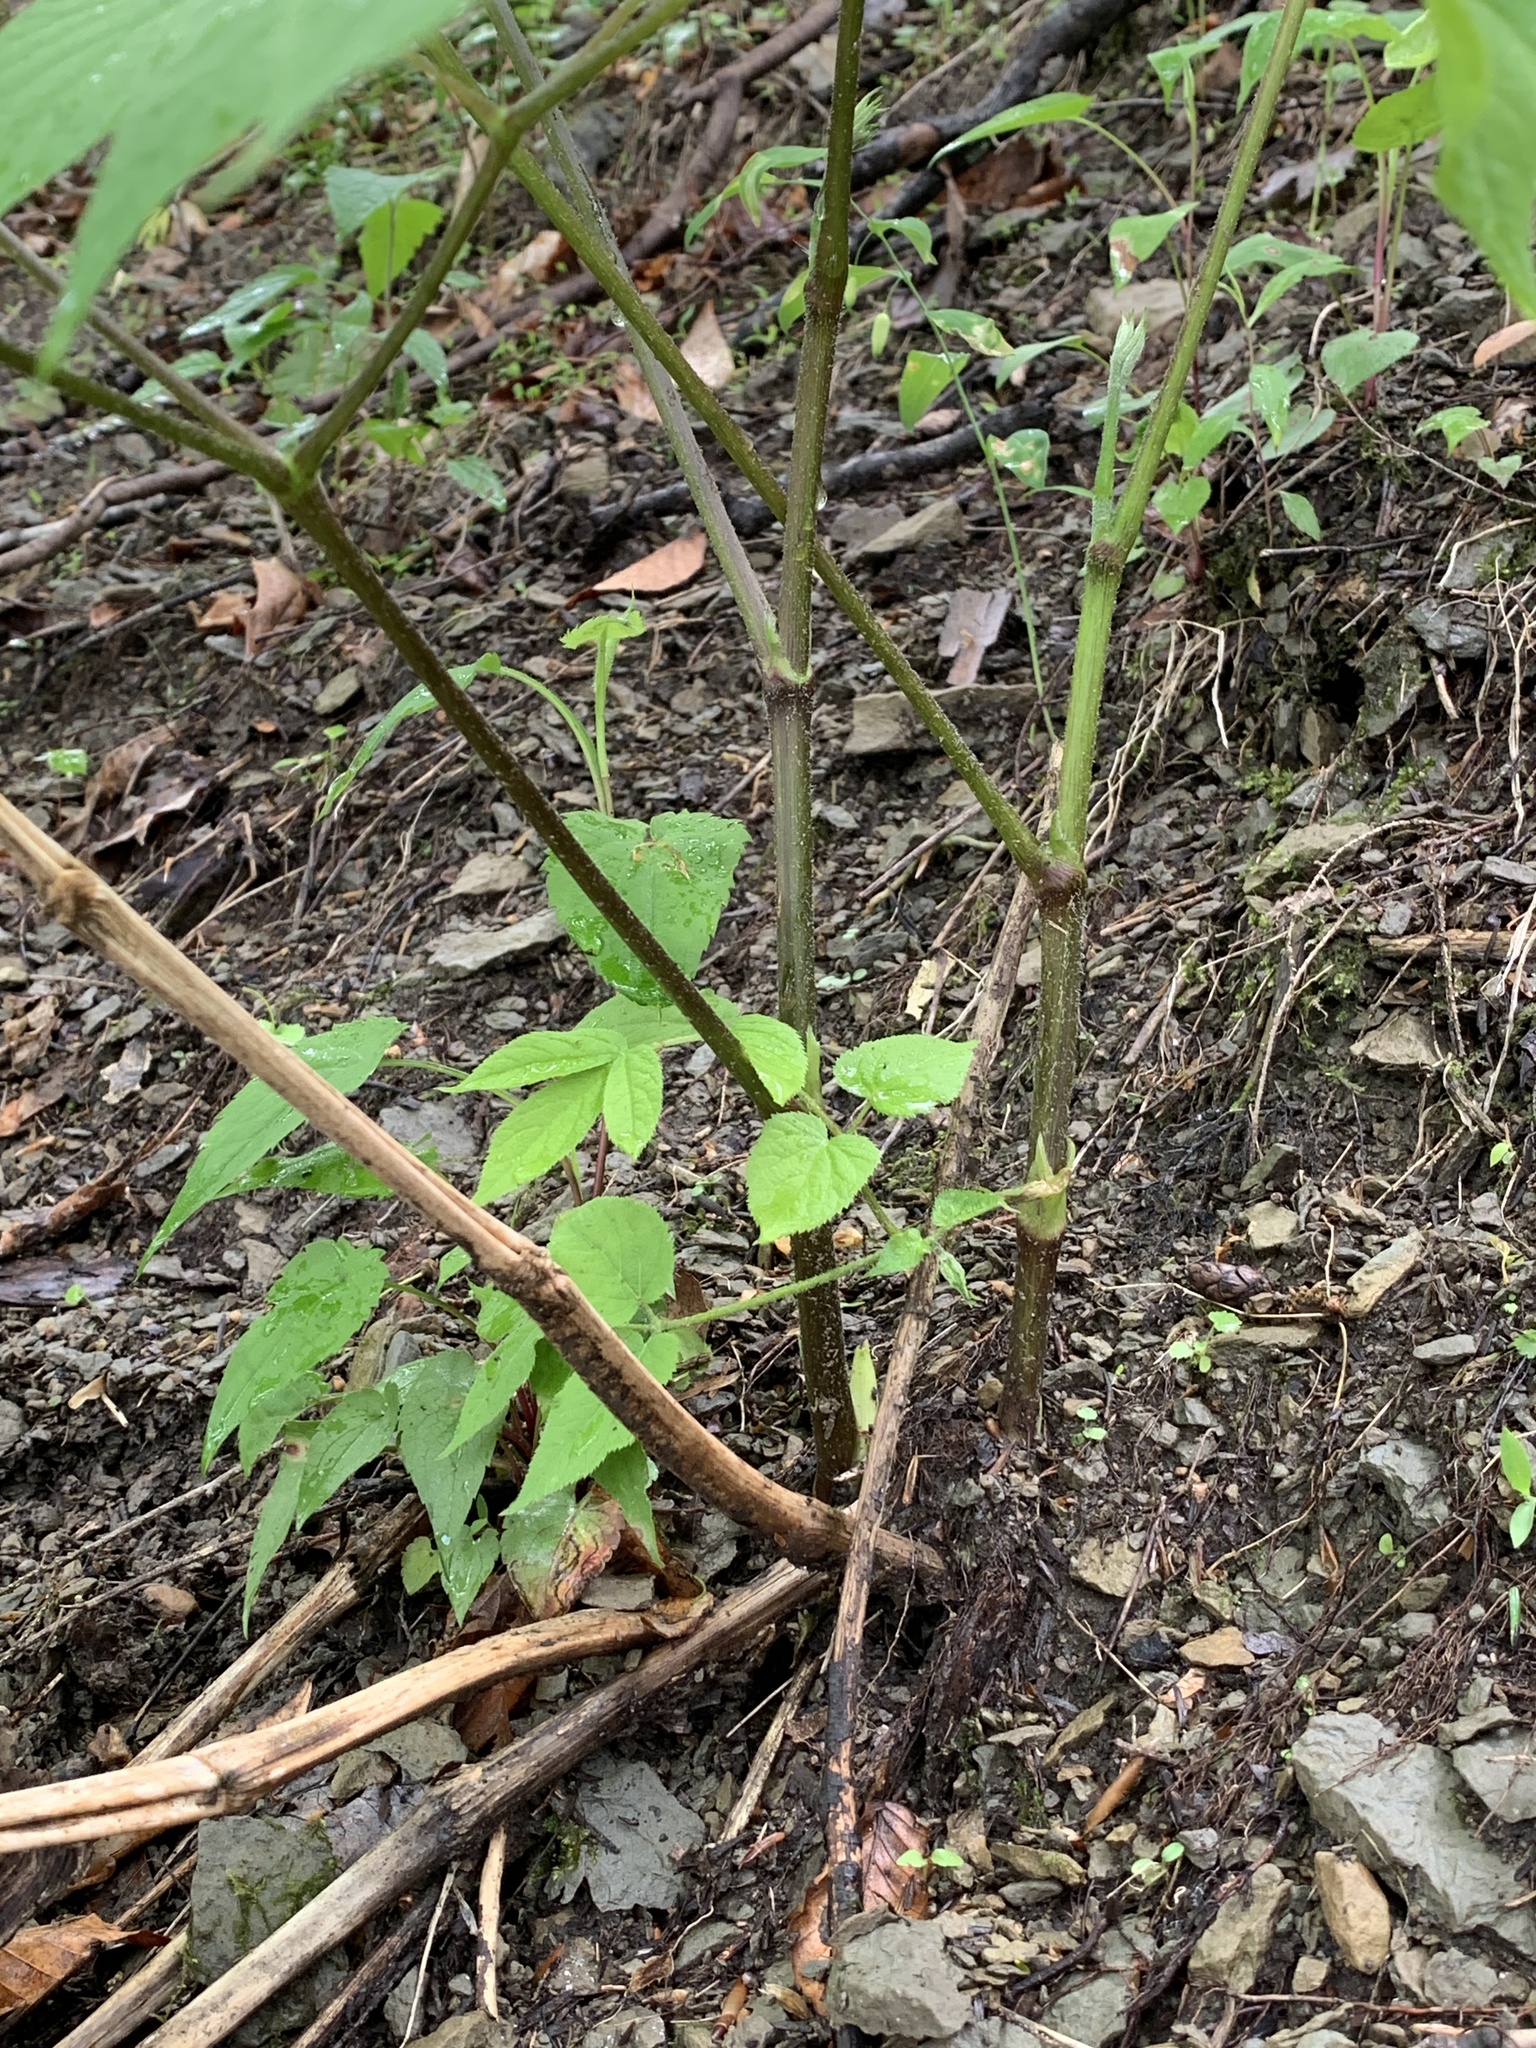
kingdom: Plantae
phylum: Tracheophyta
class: Magnoliopsida
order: Apiales
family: Araliaceae
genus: Aralia
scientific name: Aralia racemosa
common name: American-spikenard
